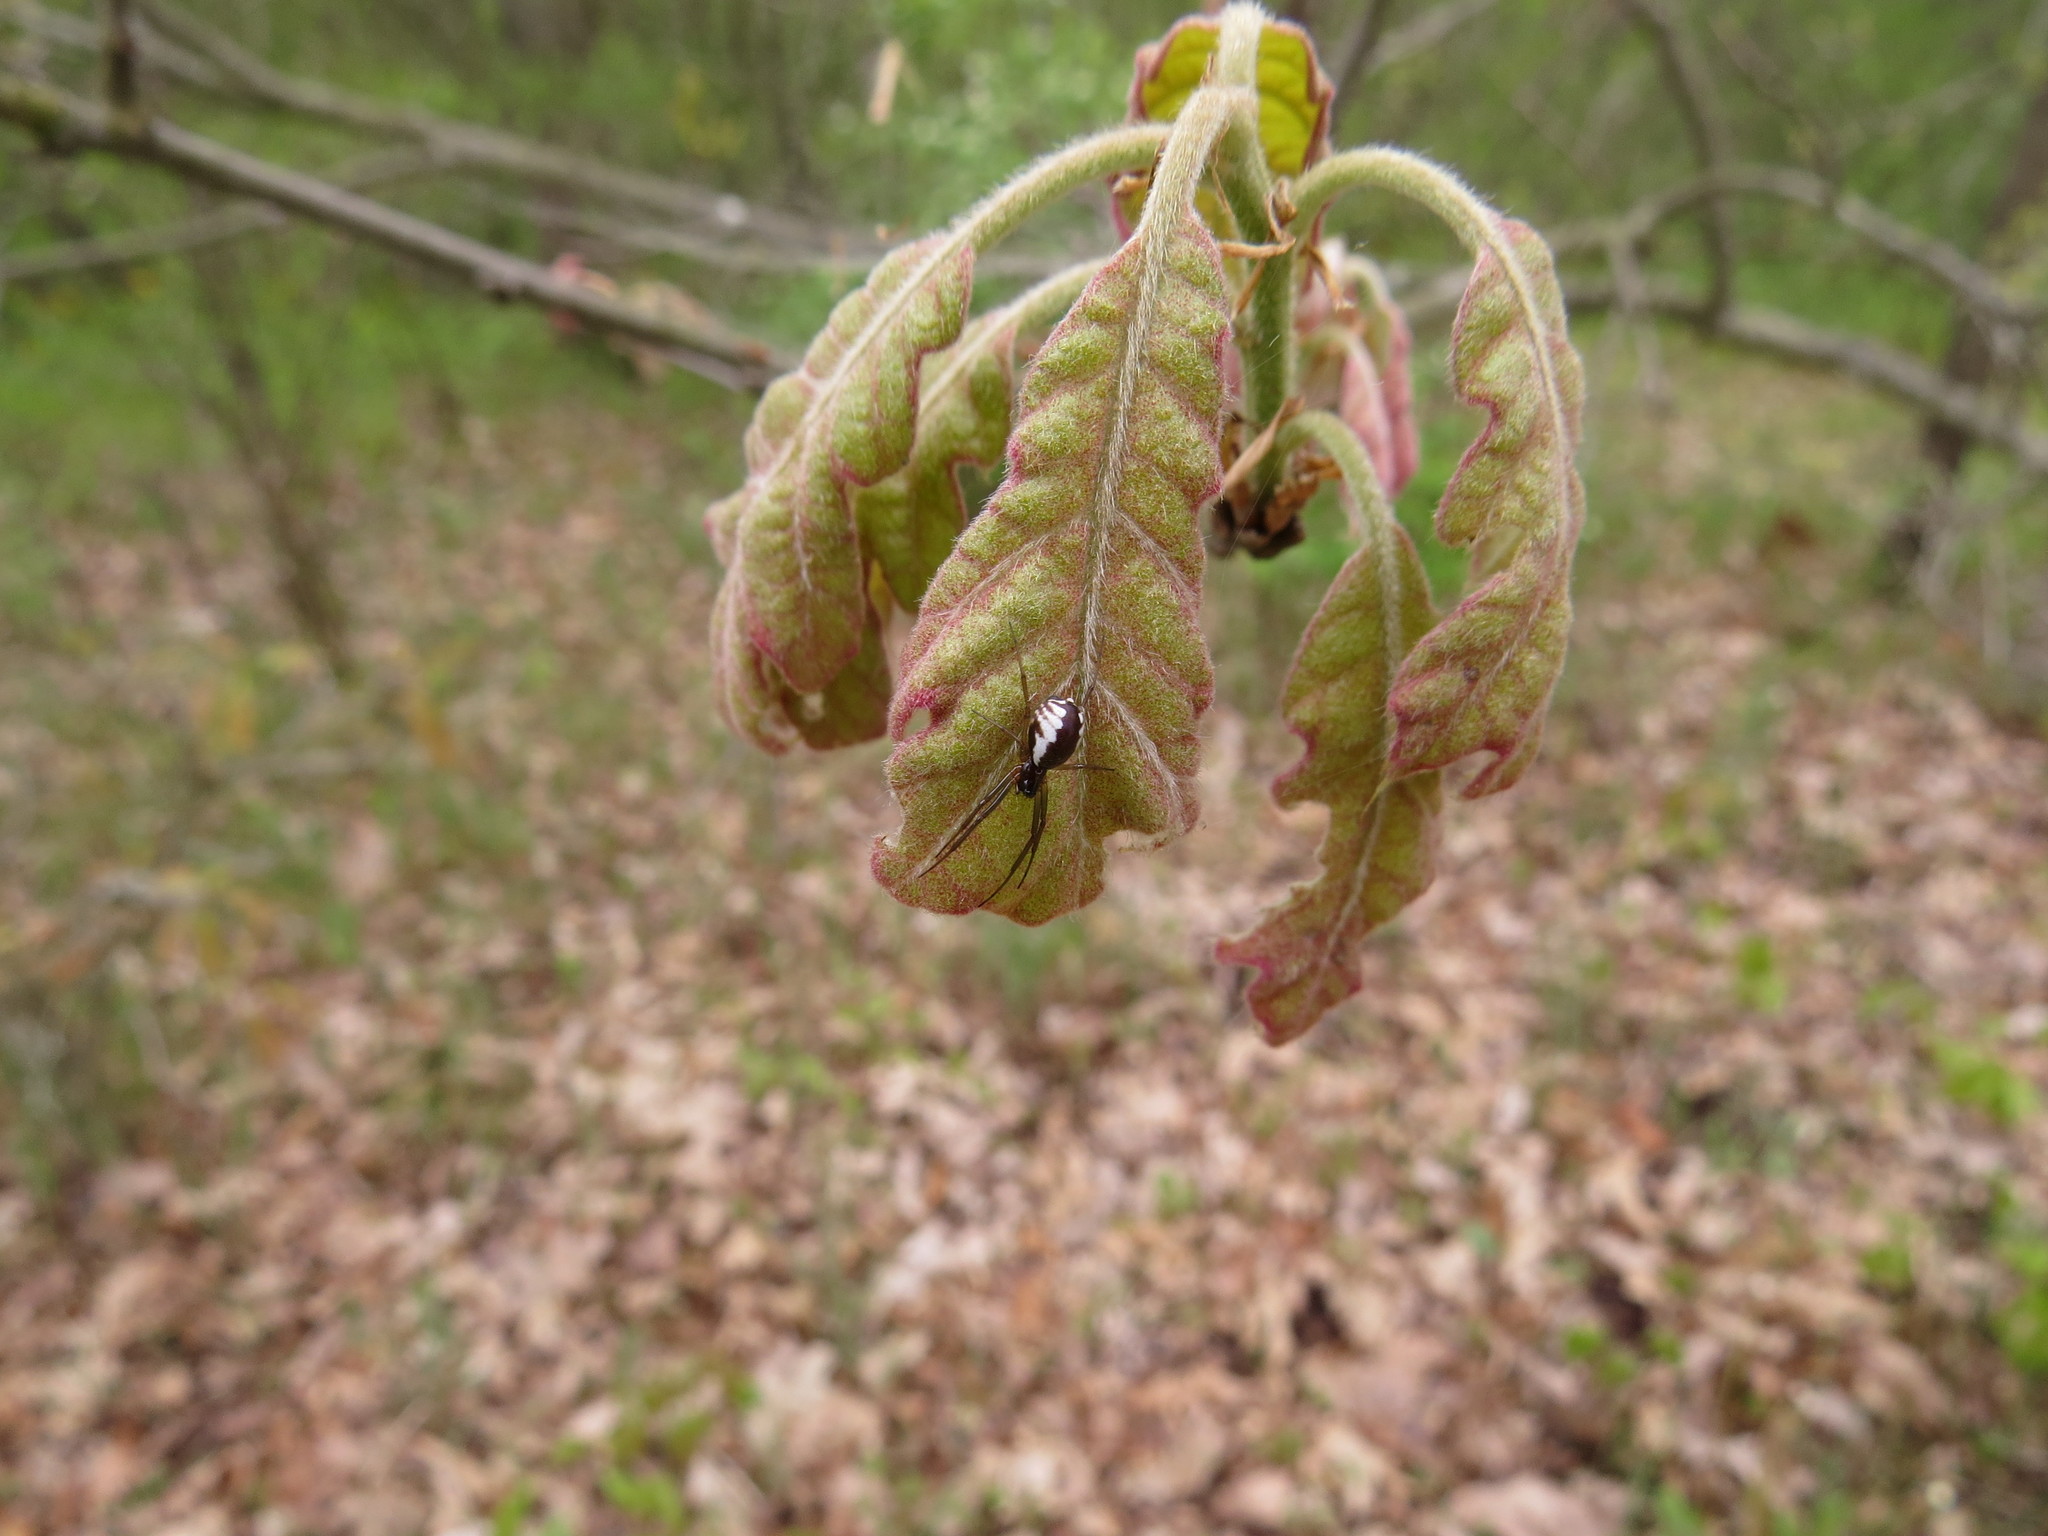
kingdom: Animalia
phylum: Arthropoda
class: Arachnida
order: Araneae
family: Linyphiidae
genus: Frontinella
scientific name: Frontinella pyramitela
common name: Bowl-and-doily spider
